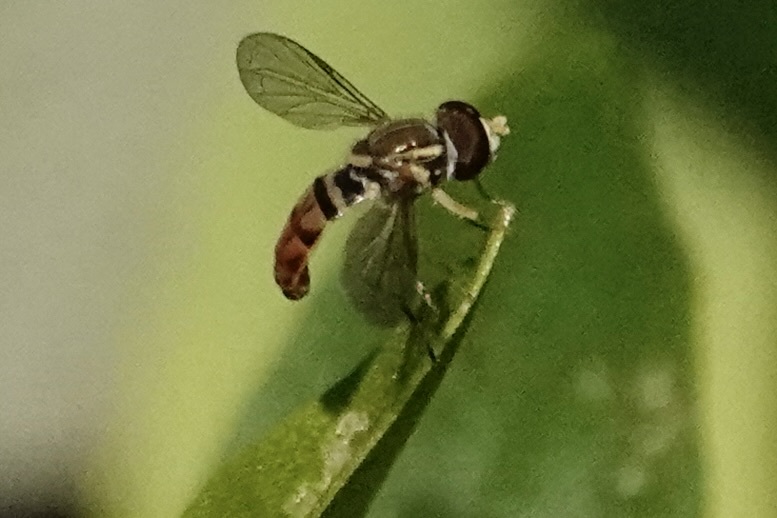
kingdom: Animalia
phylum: Arthropoda
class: Insecta
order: Diptera
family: Syrphidae
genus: Toxomerus
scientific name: Toxomerus marginatus
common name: Syrphid fly
